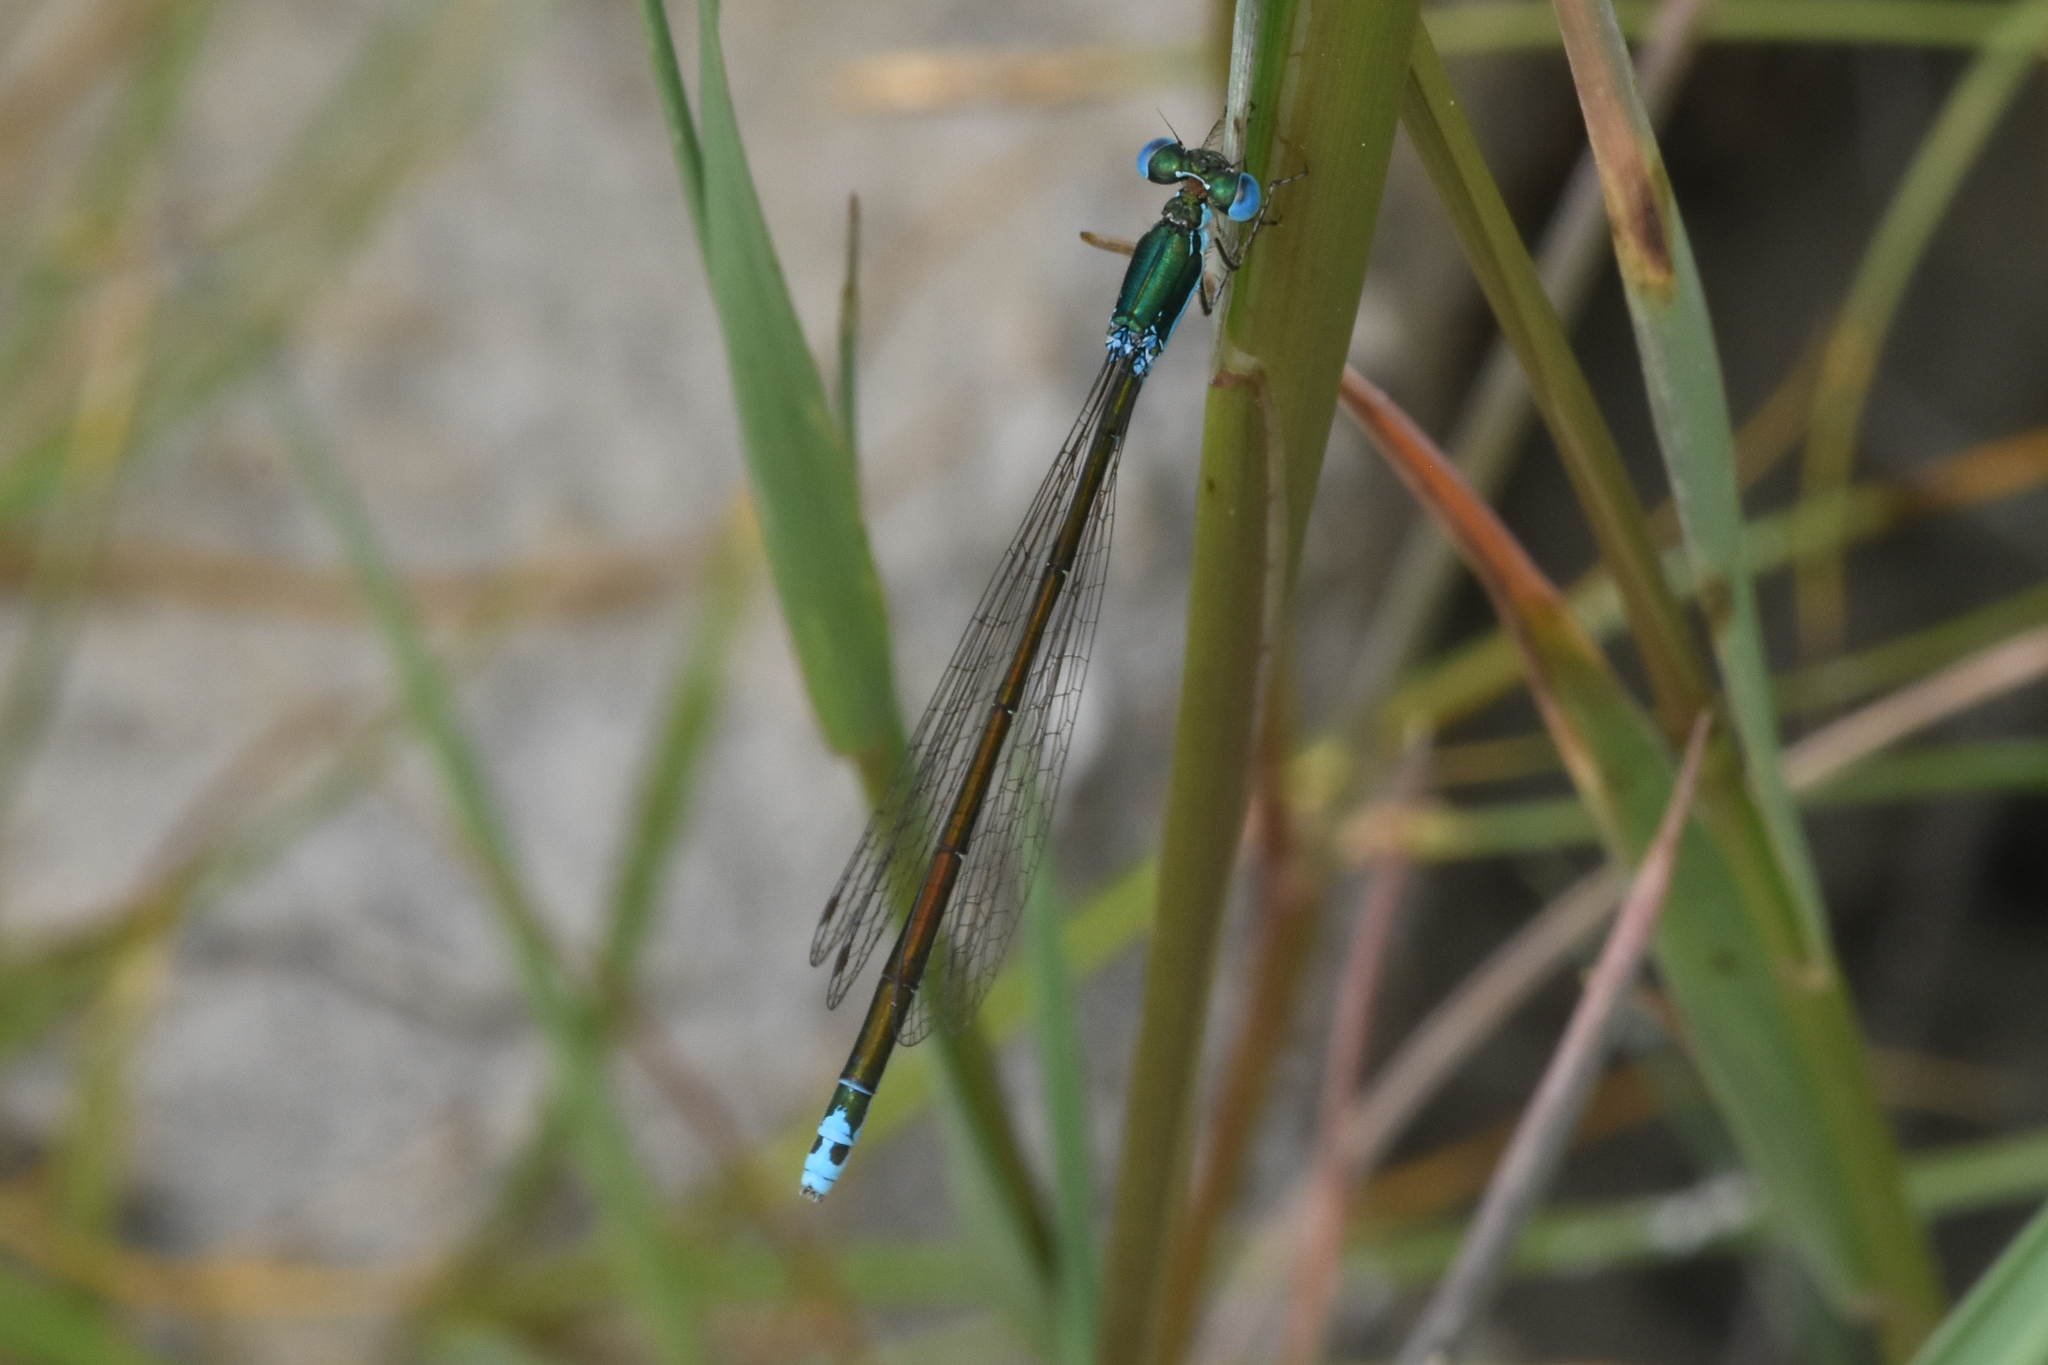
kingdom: Animalia
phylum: Arthropoda
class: Insecta
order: Odonata
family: Coenagrionidae
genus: Nehalennia
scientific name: Nehalennia irene
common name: Sedge sprite
